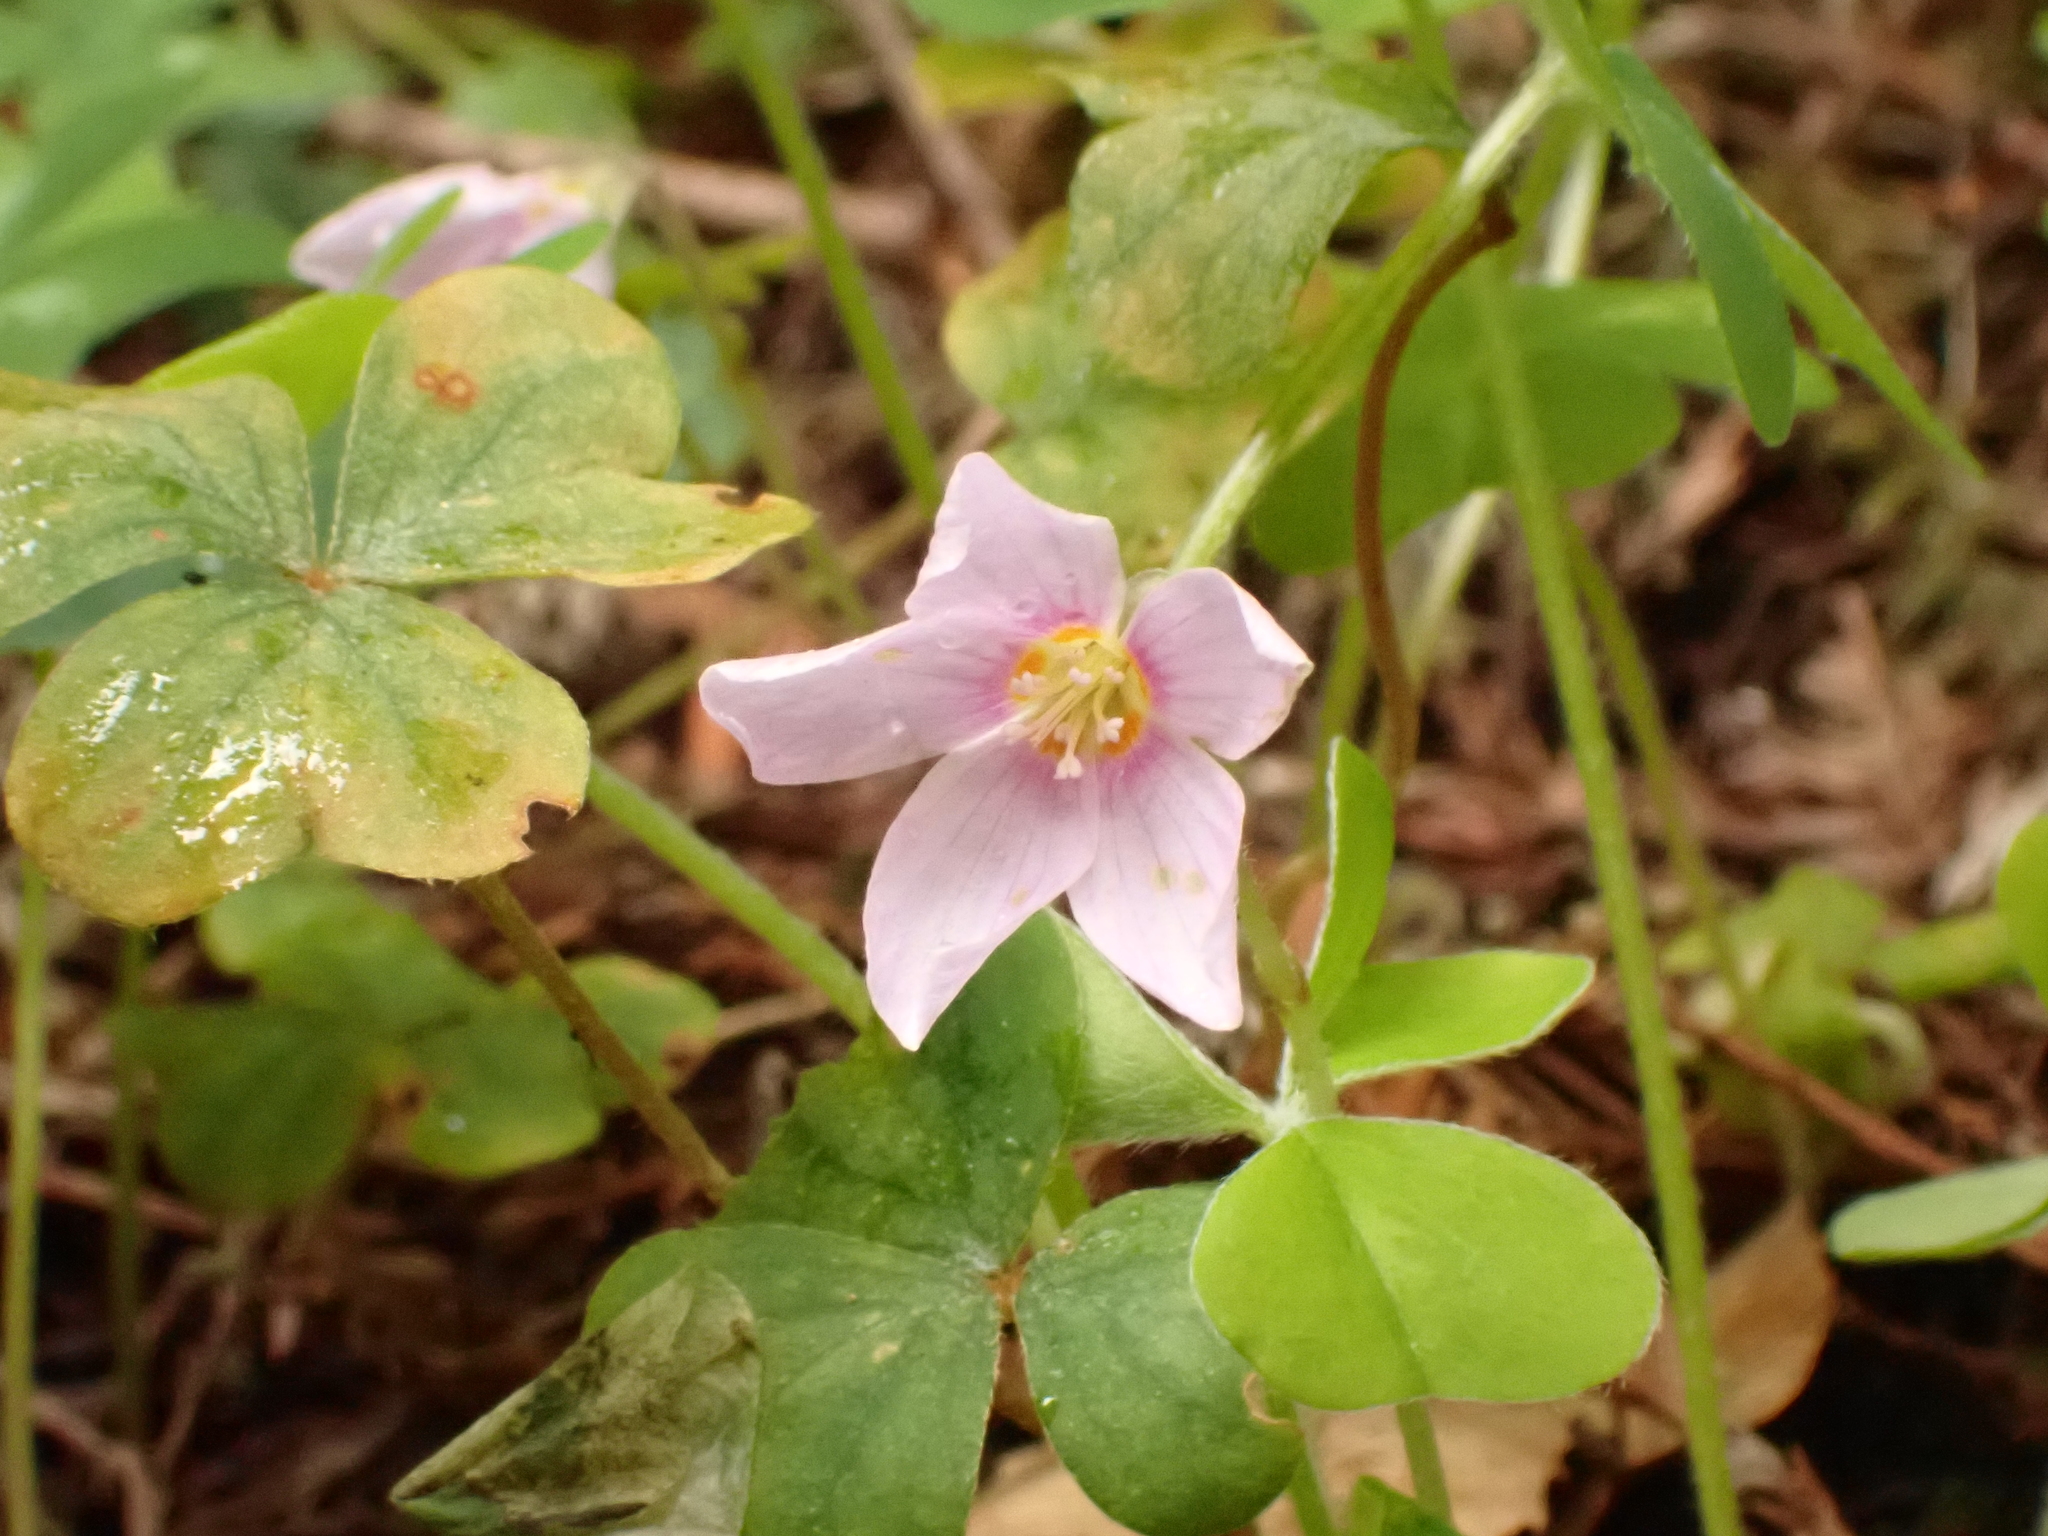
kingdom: Plantae
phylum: Tracheophyta
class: Magnoliopsida
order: Oxalidales
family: Oxalidaceae
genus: Oxalis
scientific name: Oxalis oregana
